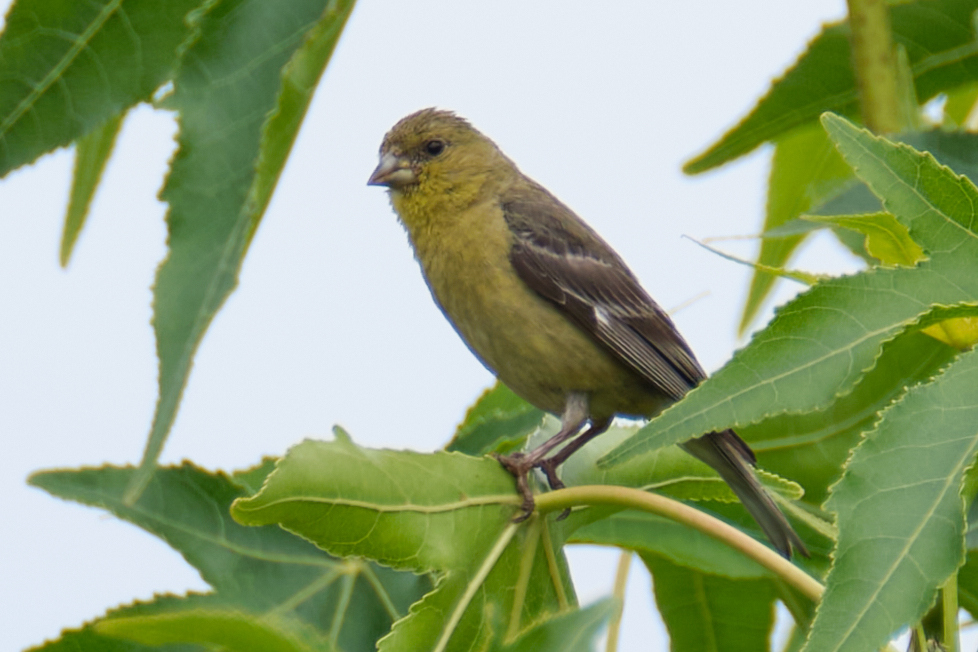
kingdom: Animalia
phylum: Chordata
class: Aves
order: Passeriformes
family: Fringillidae
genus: Spinus
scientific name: Spinus psaltria
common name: Lesser goldfinch
